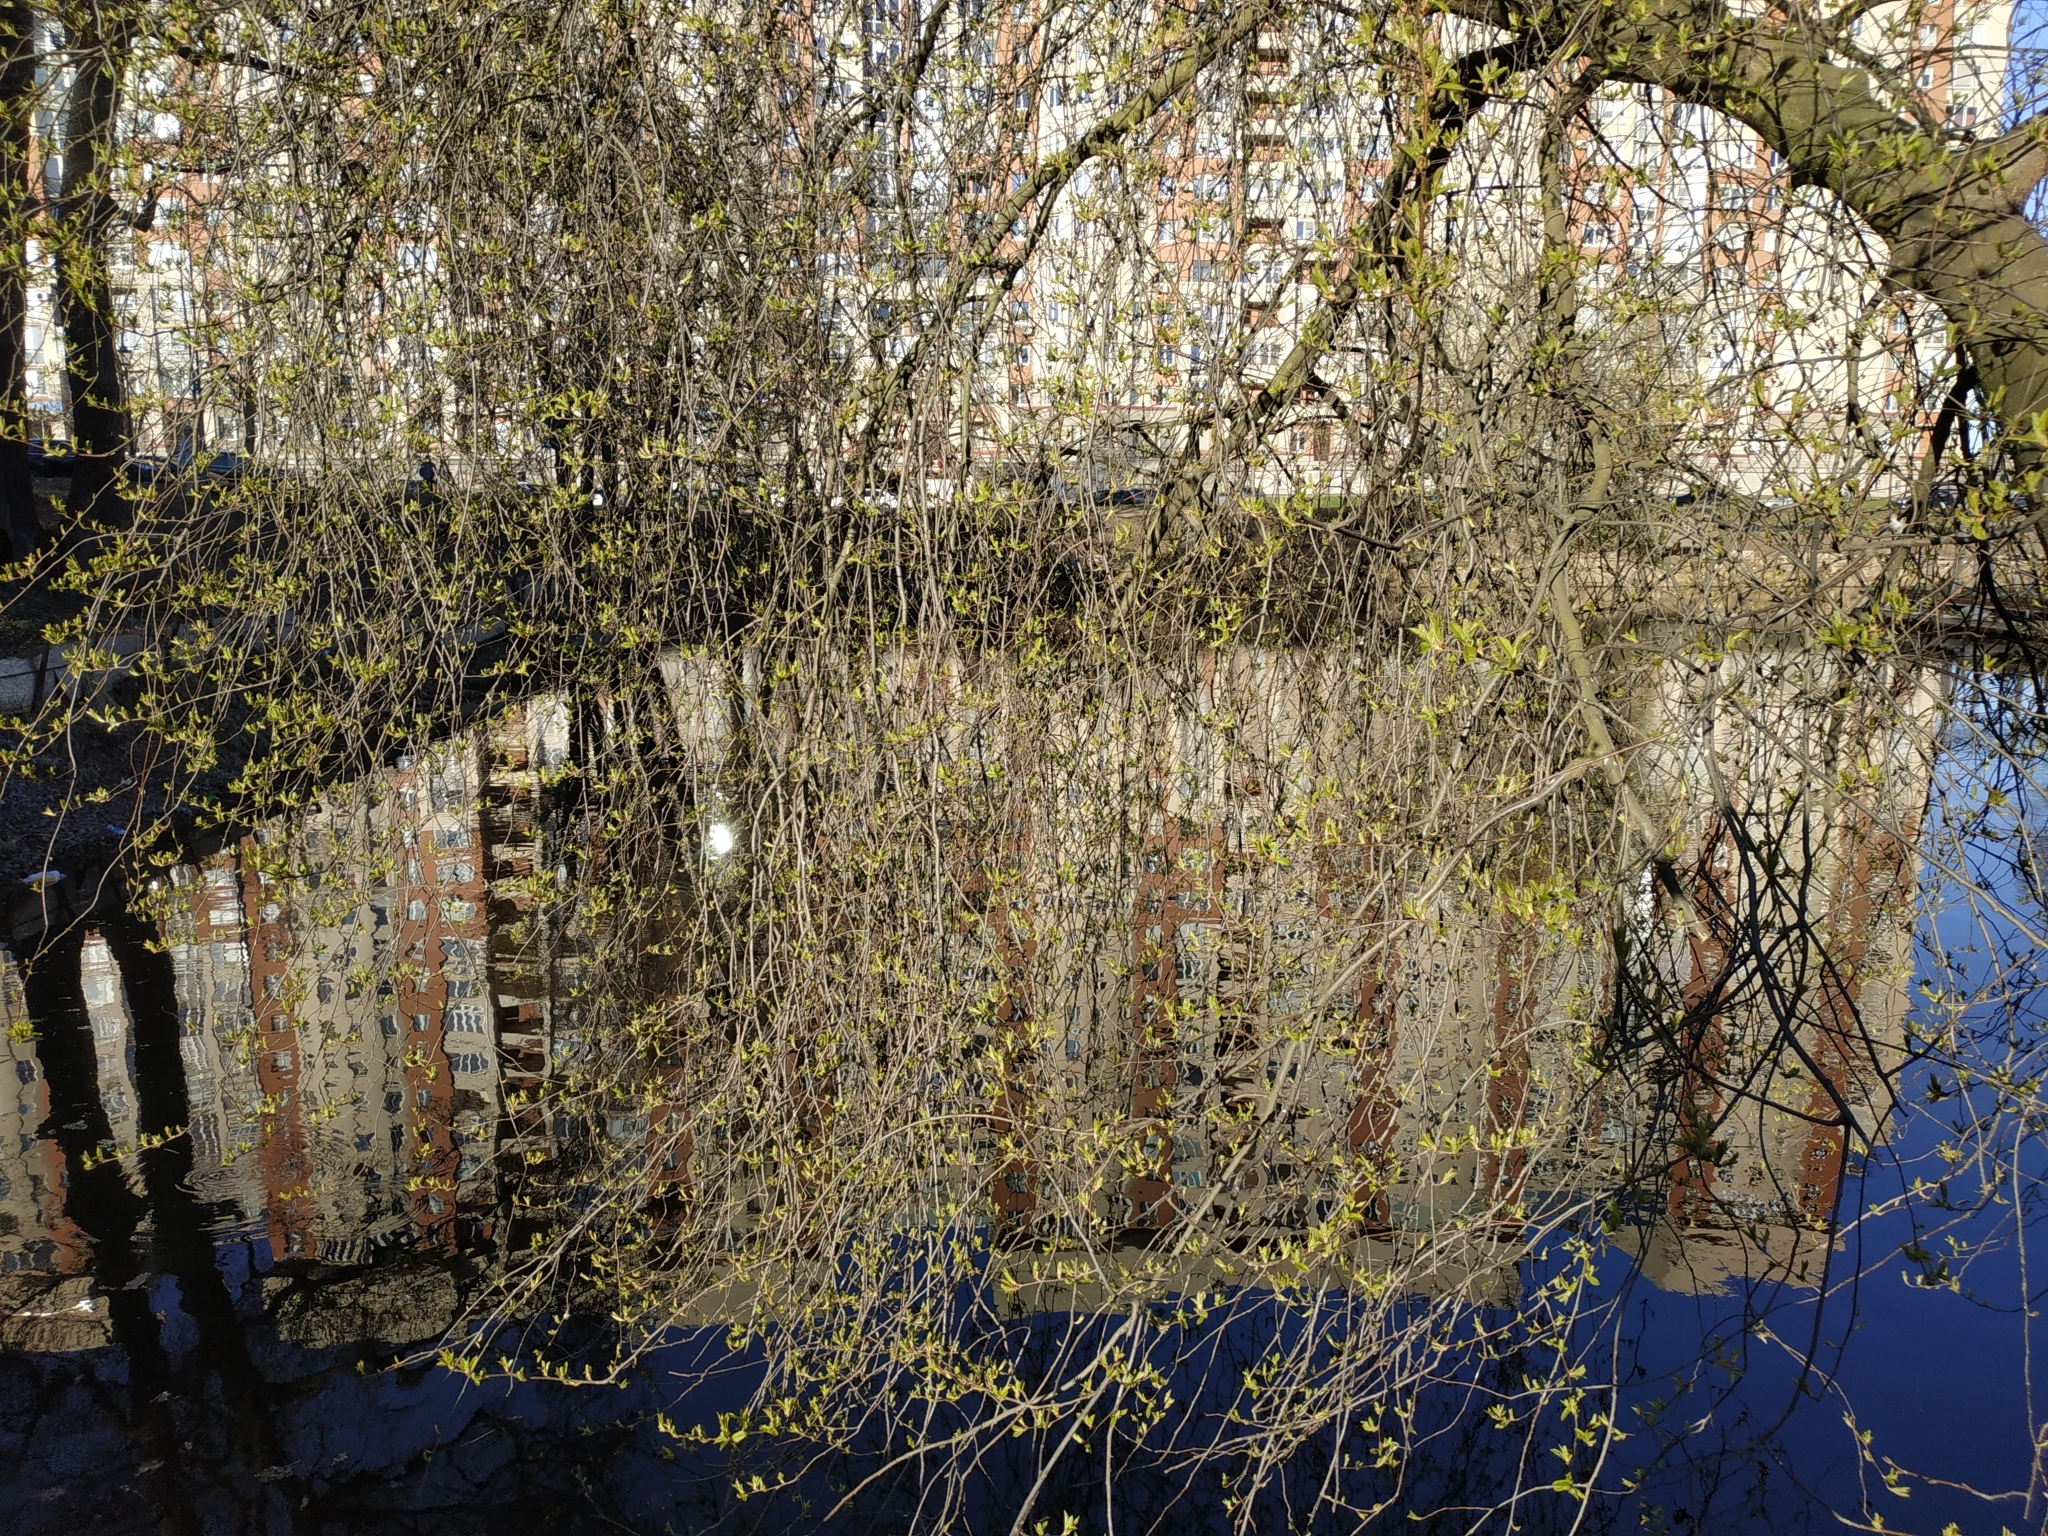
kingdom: Plantae
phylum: Tracheophyta
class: Magnoliopsida
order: Rosales
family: Rosaceae
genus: Prunus
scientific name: Prunus padus
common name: Bird cherry
